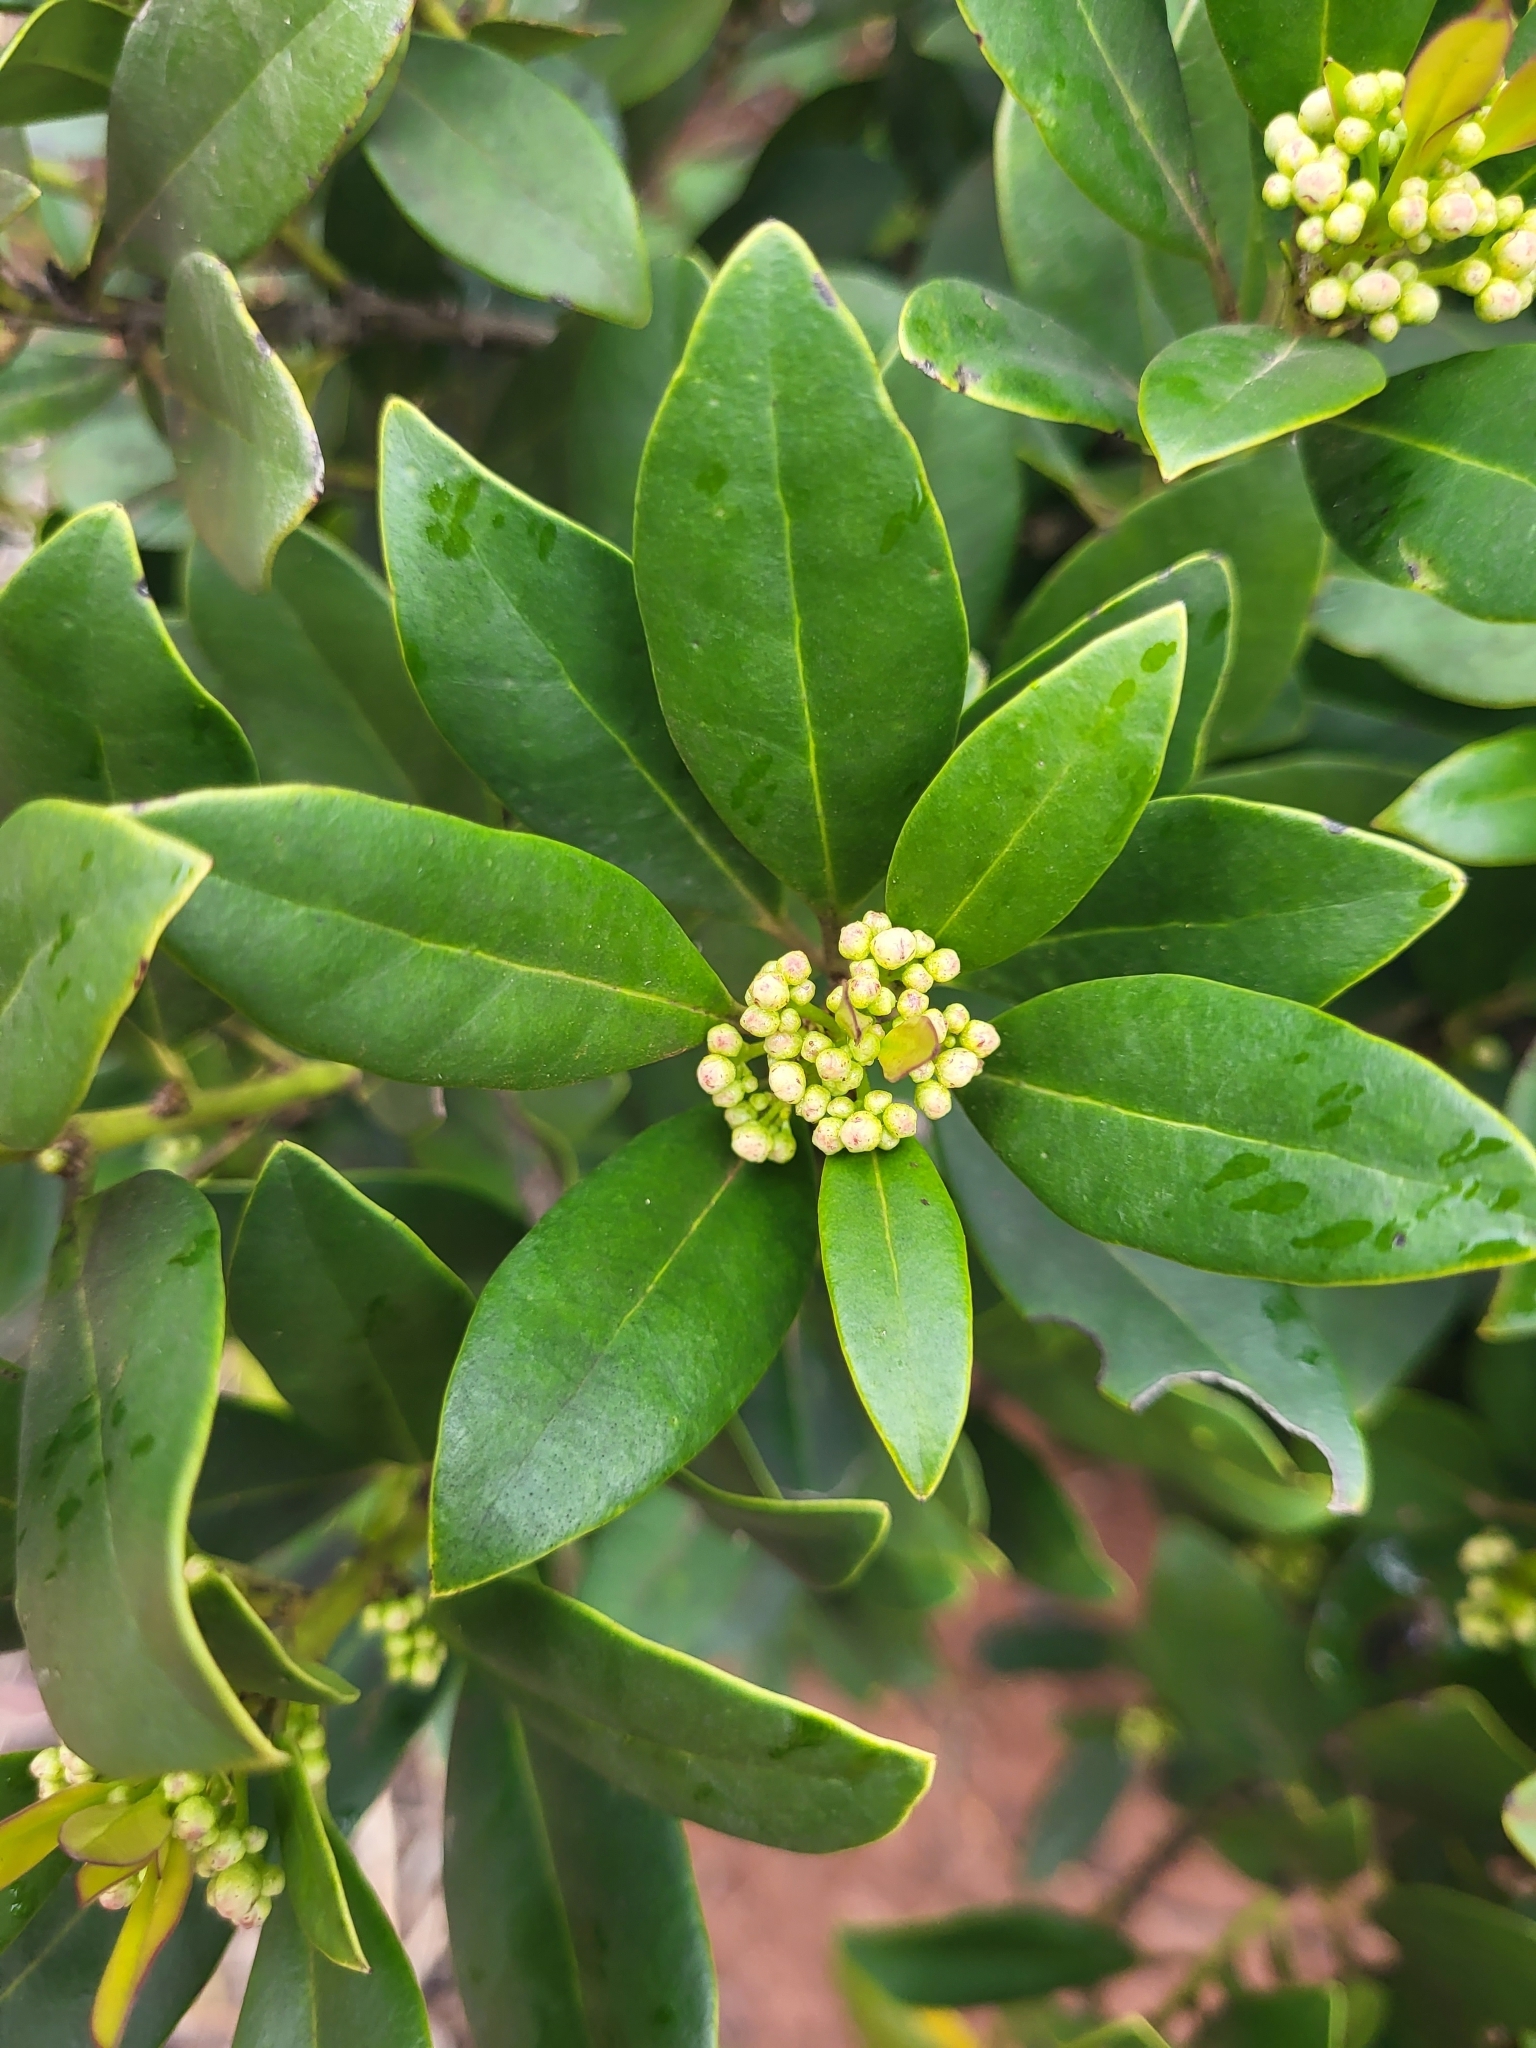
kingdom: Plantae
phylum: Tracheophyta
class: Magnoliopsida
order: Aquifoliales
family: Aquifoliaceae
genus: Ilex
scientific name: Ilex canariensis
